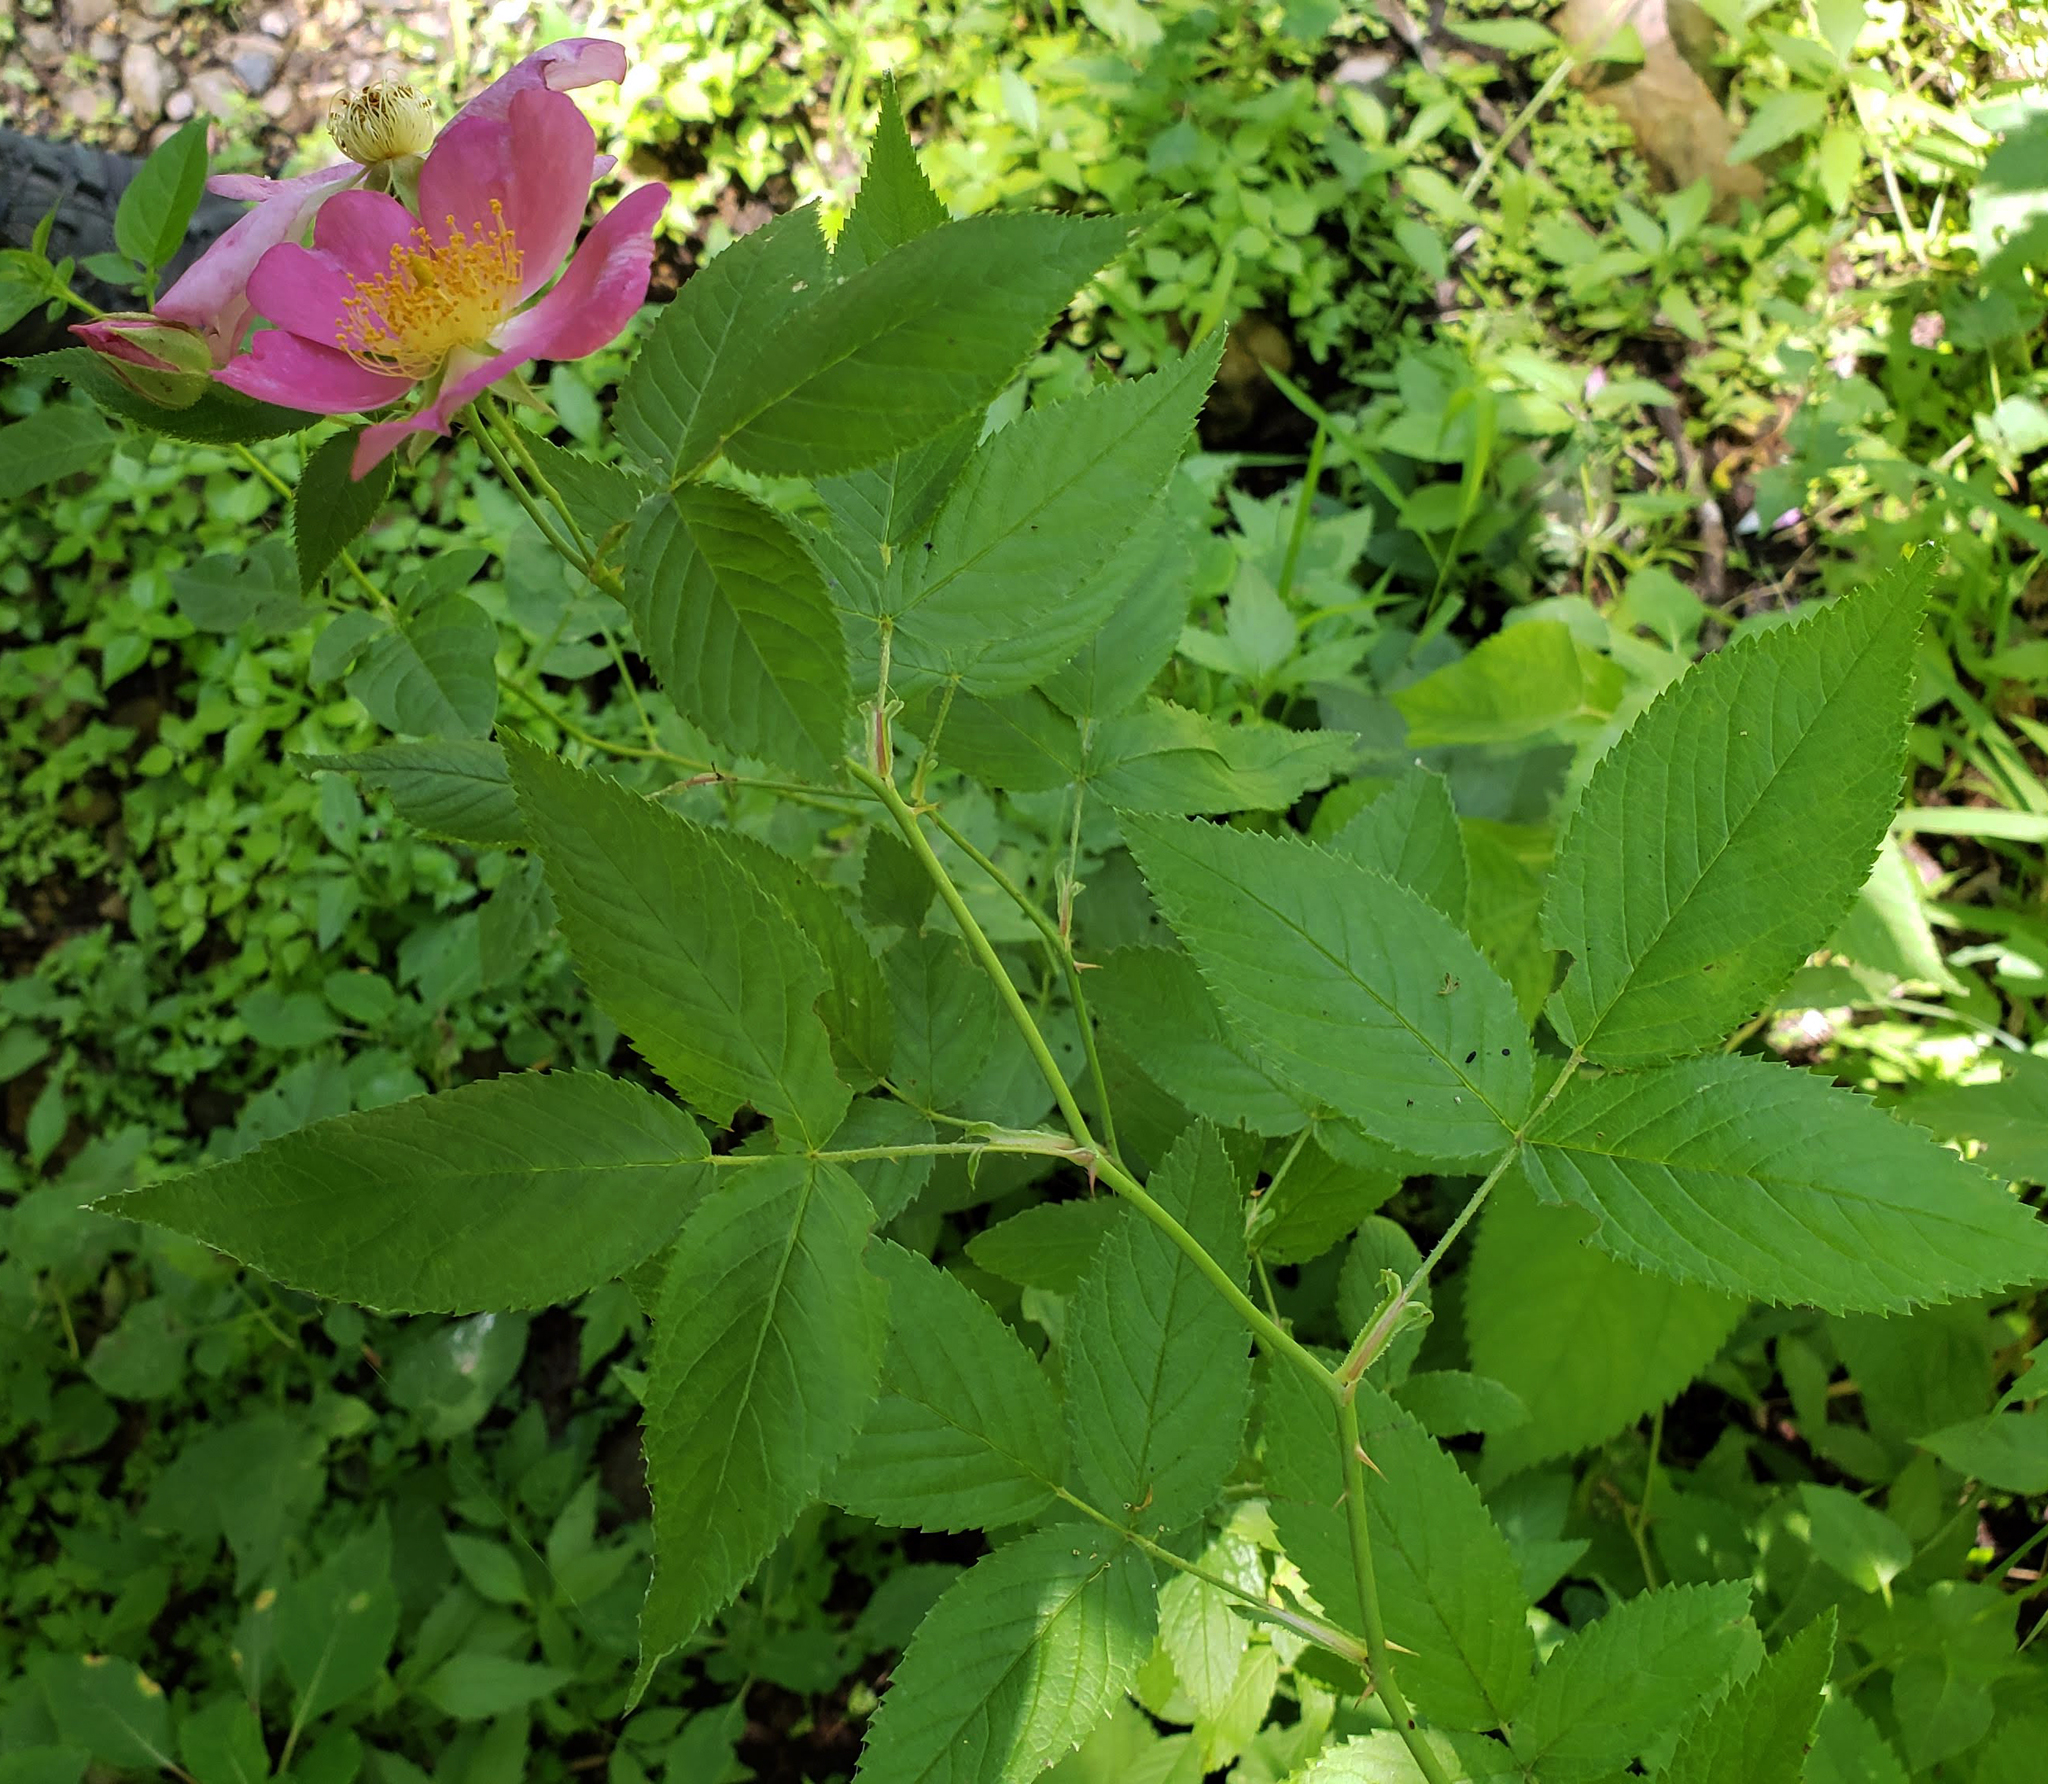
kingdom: Plantae
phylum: Tracheophyta
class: Magnoliopsida
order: Rosales
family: Rosaceae
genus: Rosa
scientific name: Rosa setigera
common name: Prairie rose
